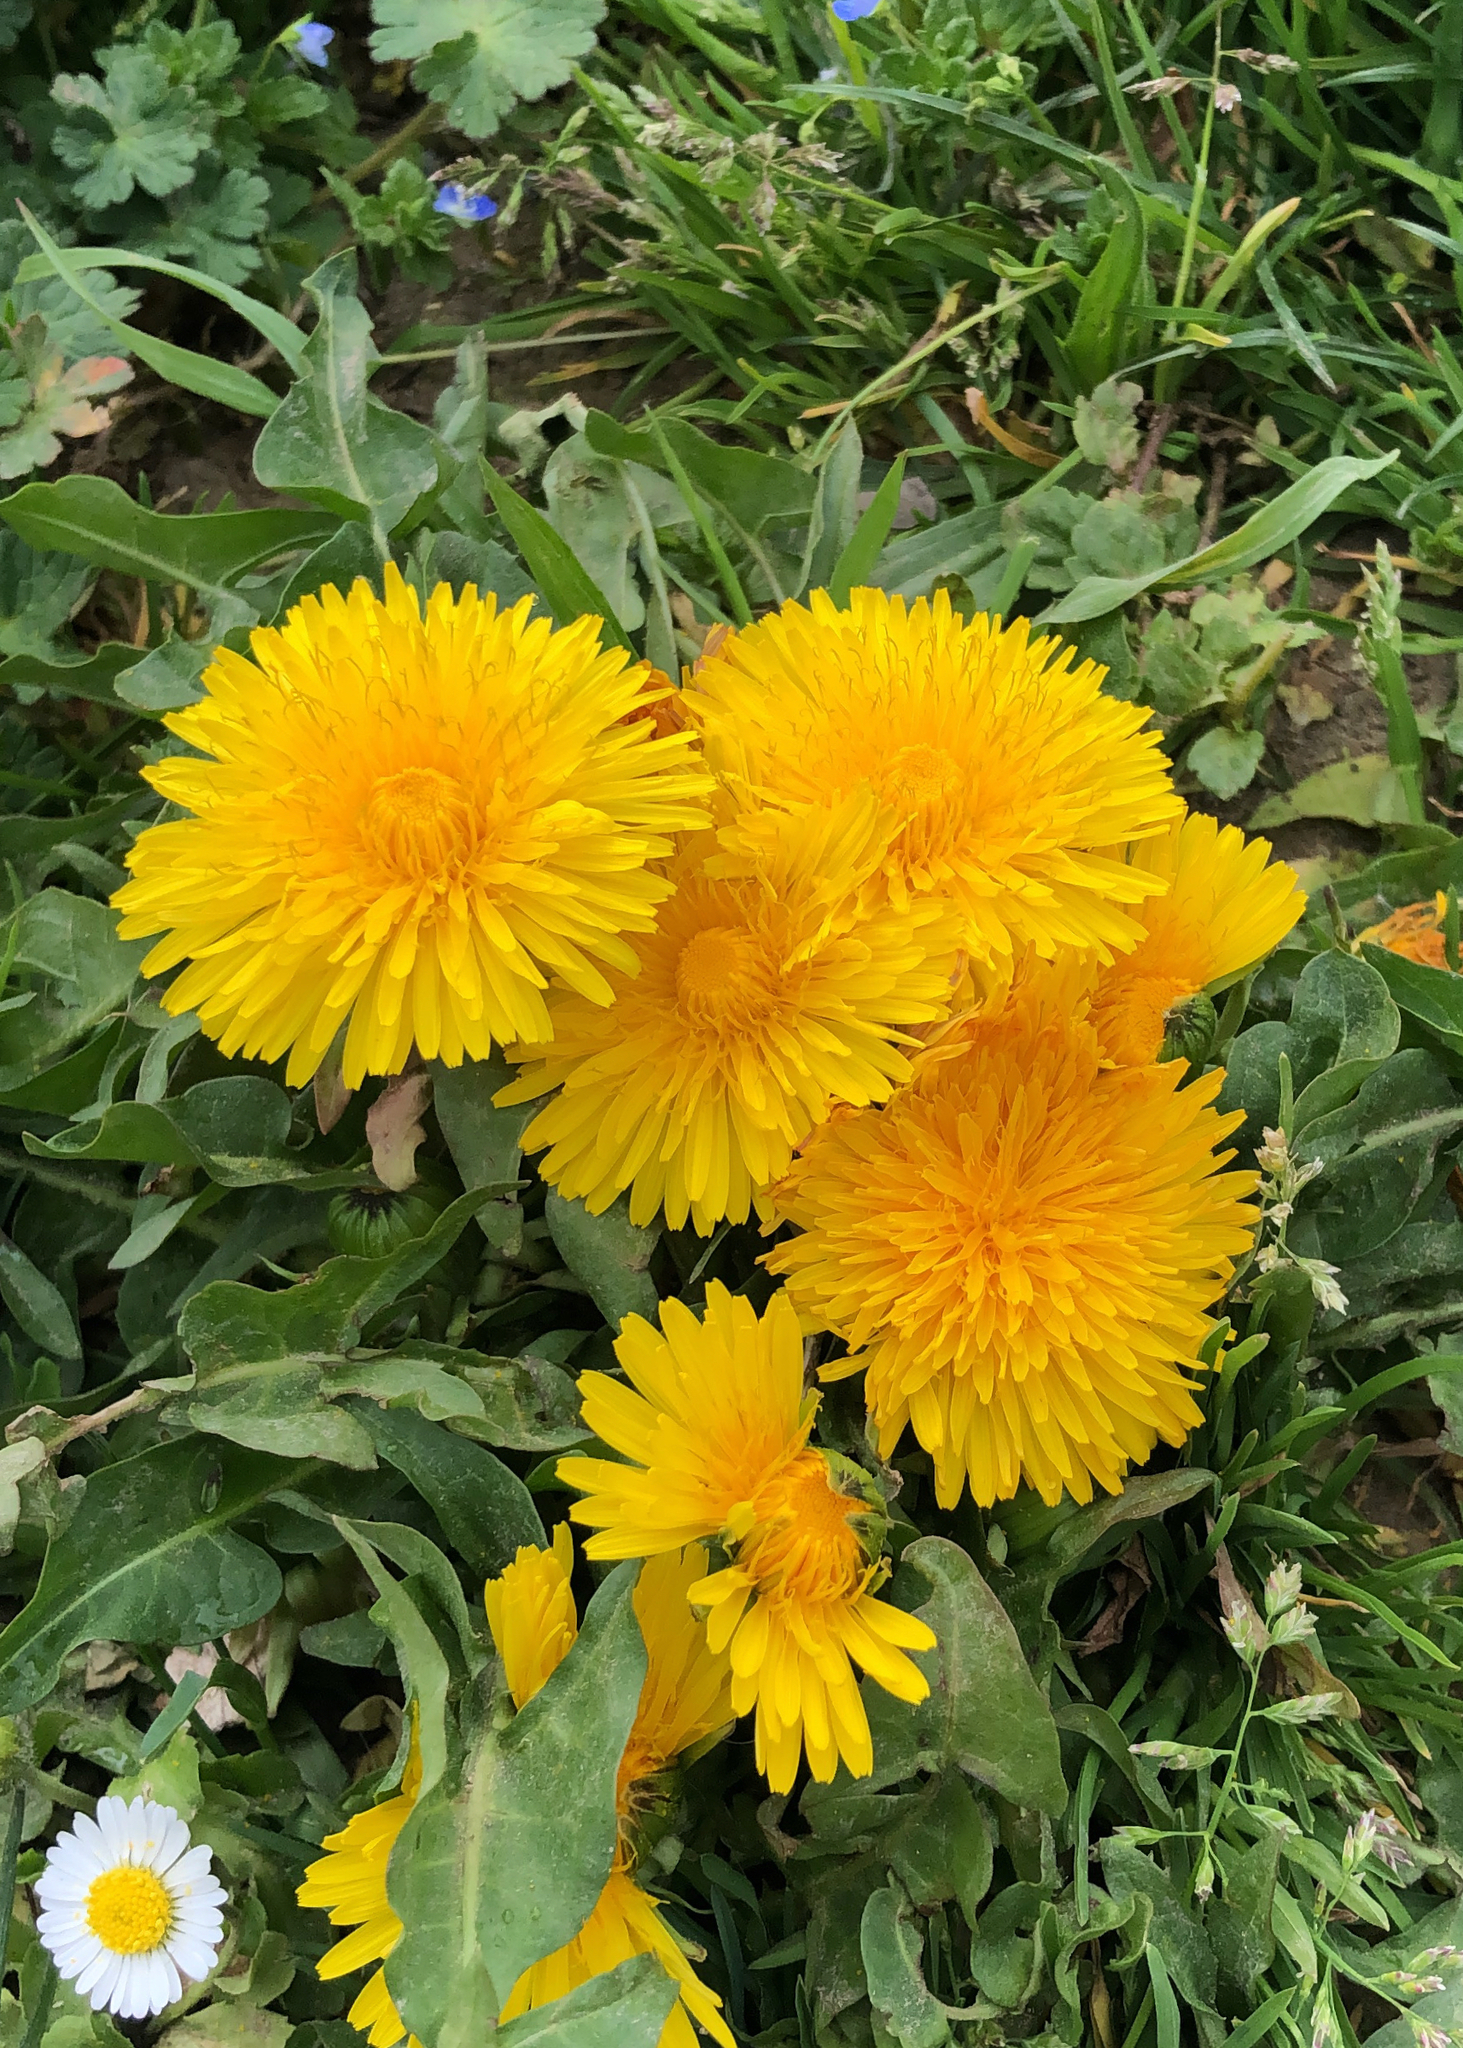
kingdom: Plantae
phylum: Tracheophyta
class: Magnoliopsida
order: Asterales
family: Asteraceae
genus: Taraxacum
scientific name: Taraxacum officinale
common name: Common dandelion
